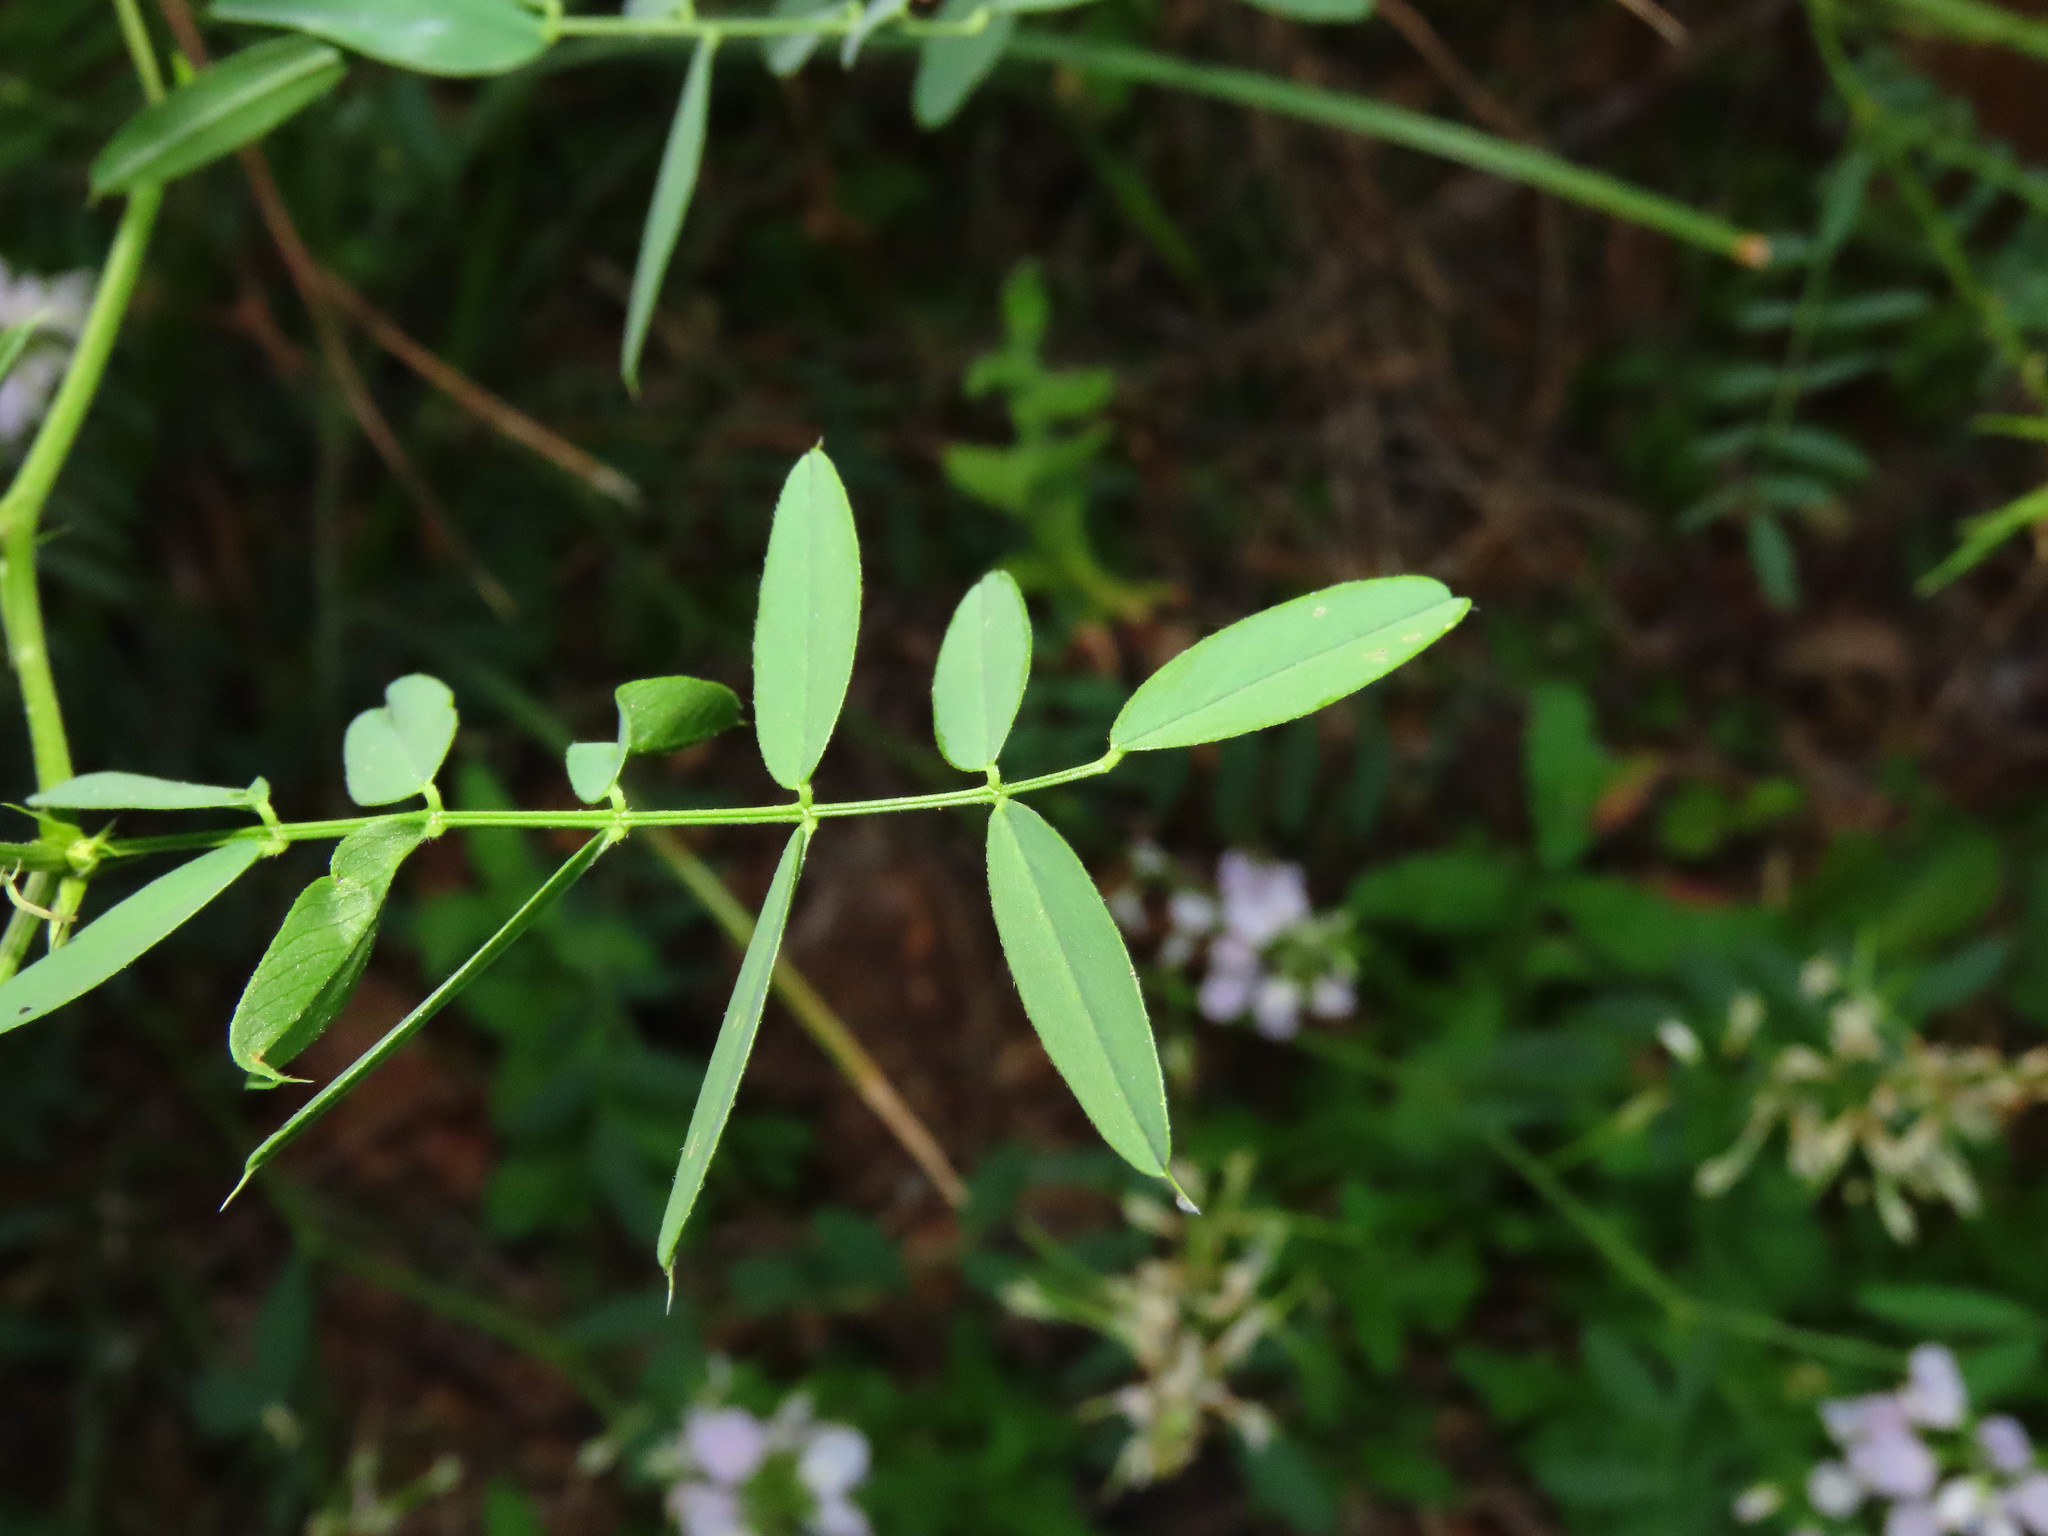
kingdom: Plantae
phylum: Tracheophyta
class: Magnoliopsida
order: Fabales
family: Fabaceae
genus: Galega
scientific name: Galega officinalis
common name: Goat's-rue
